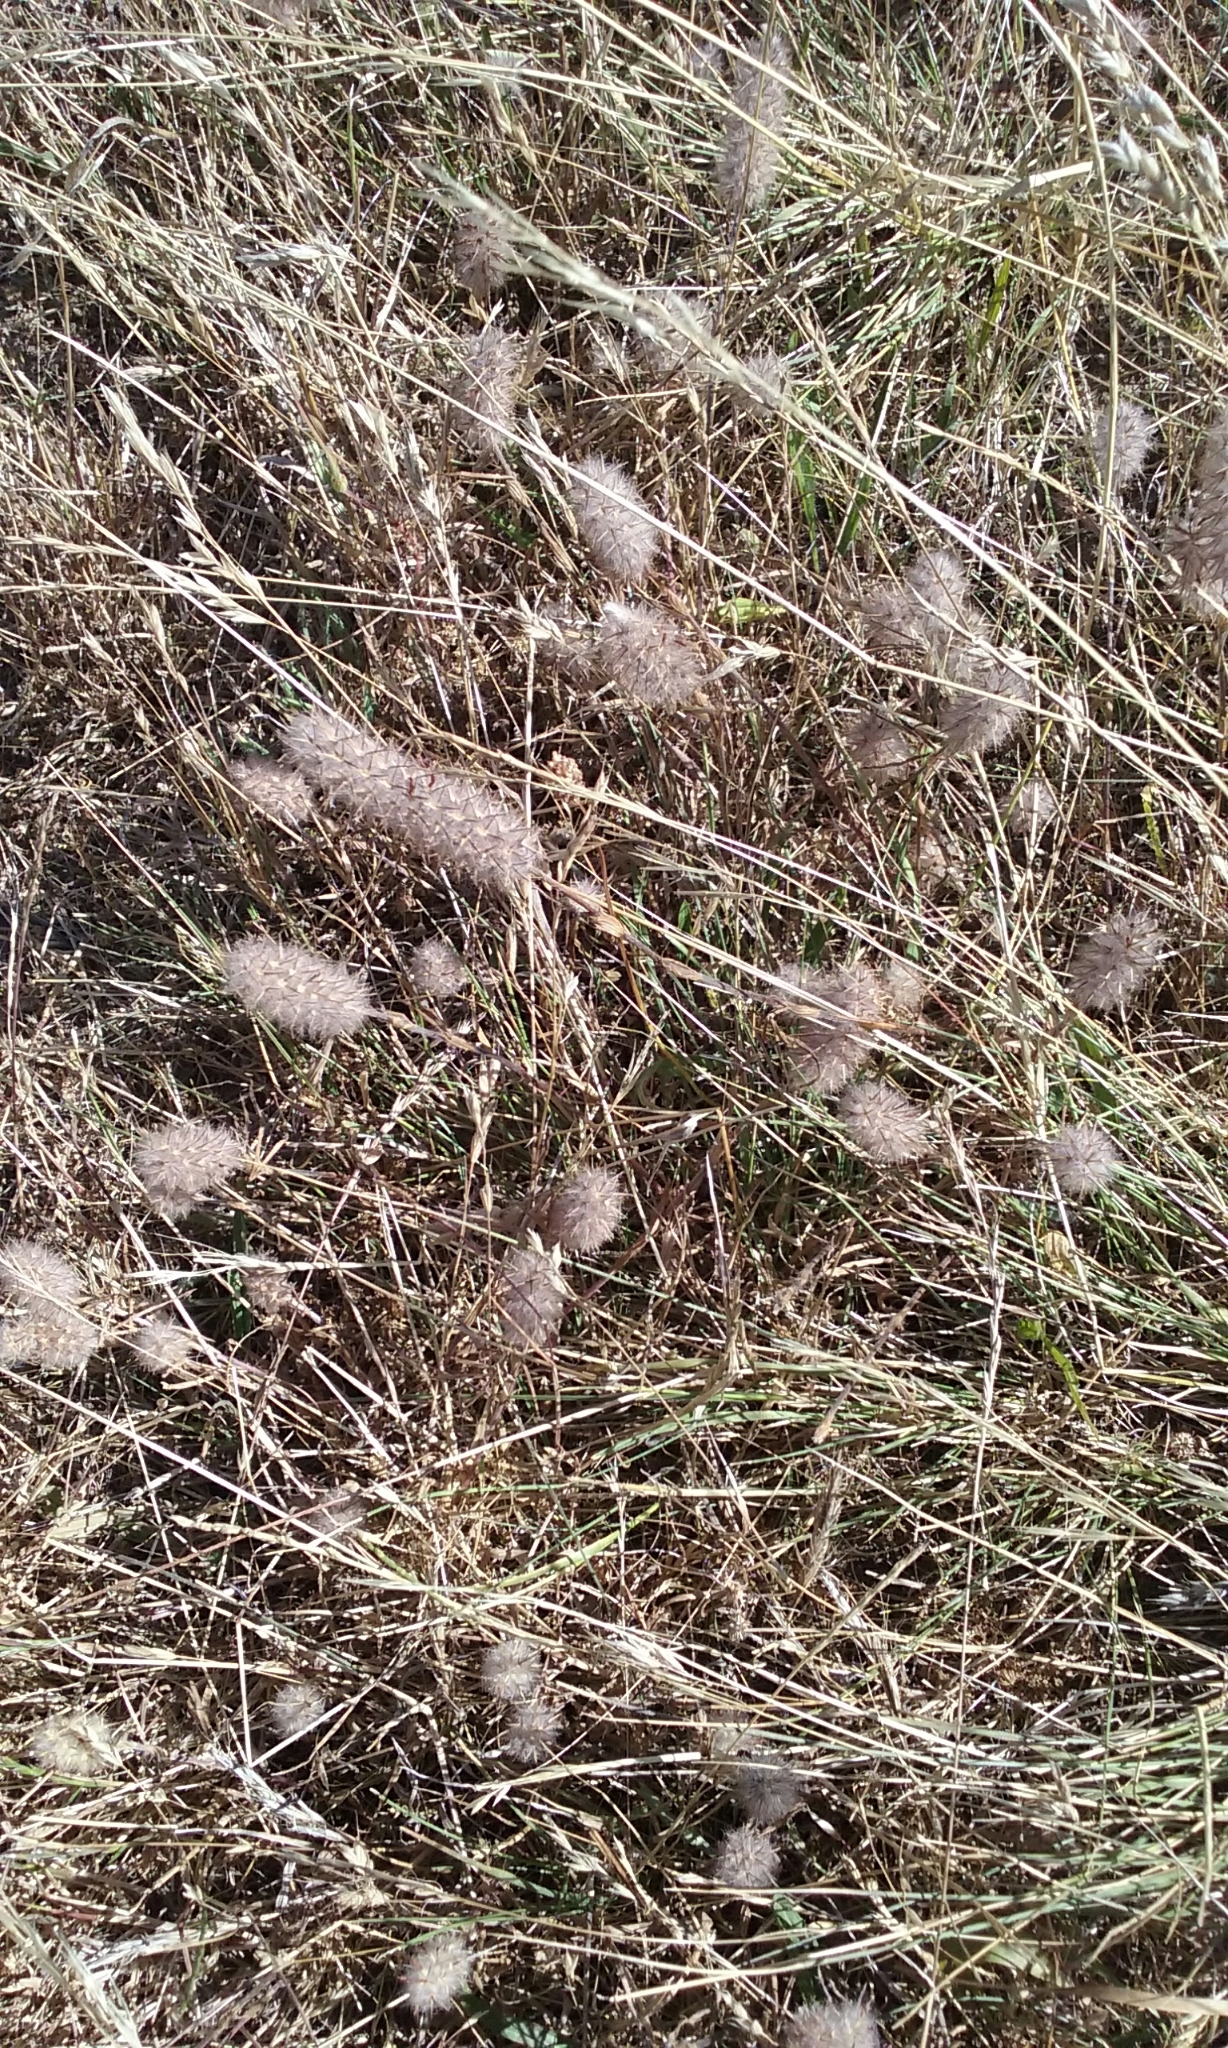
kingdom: Plantae
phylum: Tracheophyta
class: Magnoliopsida
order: Fabales
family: Fabaceae
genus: Trifolium
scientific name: Trifolium angustifolium
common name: Narrow clover
